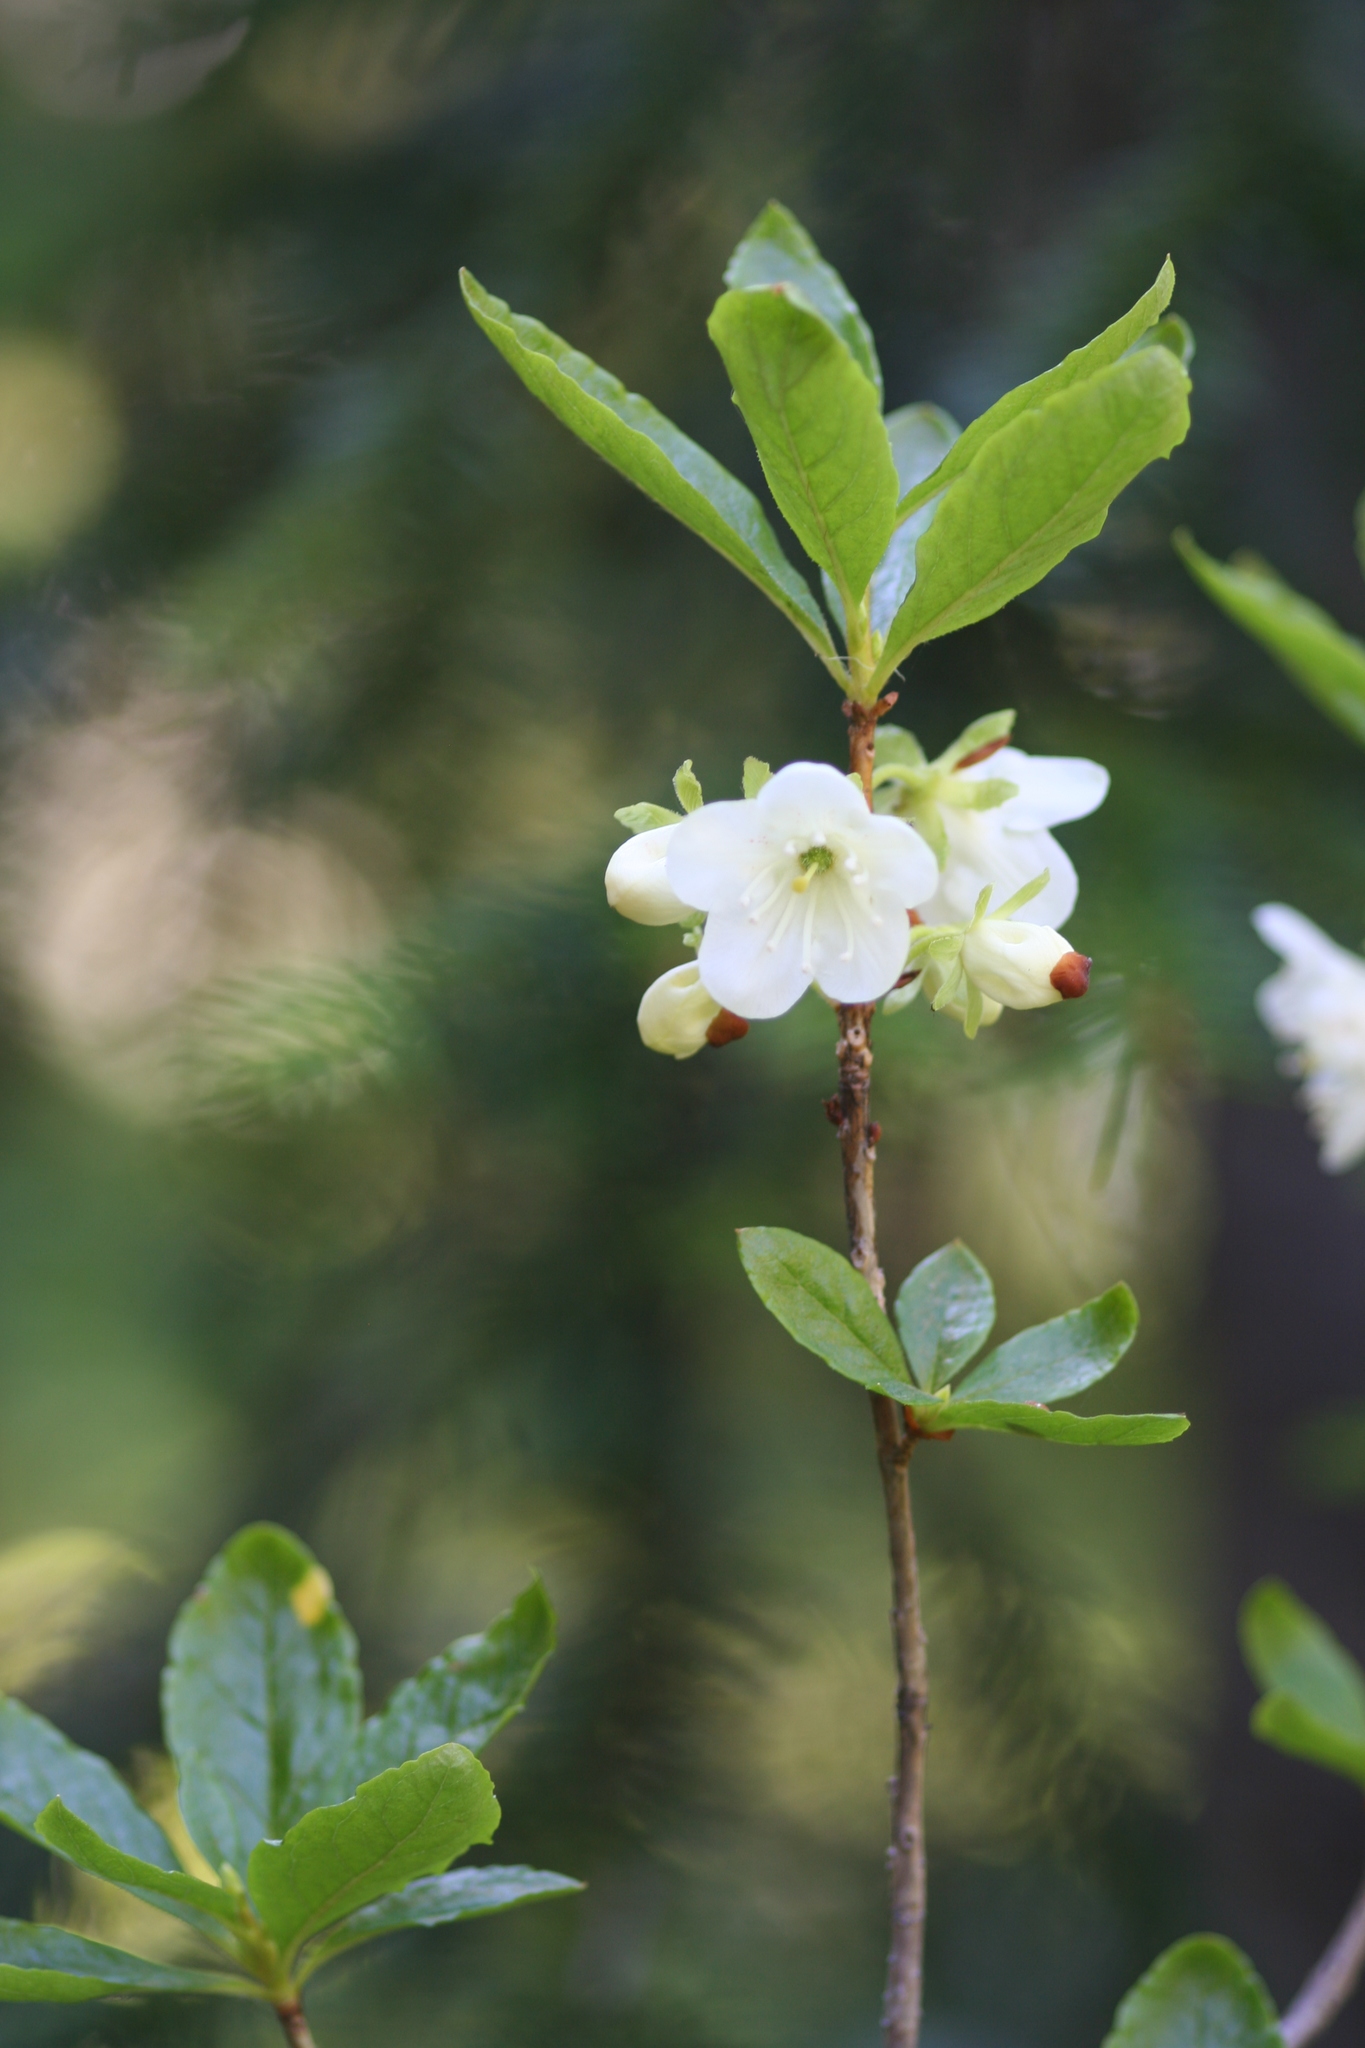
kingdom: Plantae
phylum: Tracheophyta
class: Magnoliopsida
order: Ericales
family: Ericaceae
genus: Rhododendron
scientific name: Rhododendron albiflorum
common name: White rhododendron
